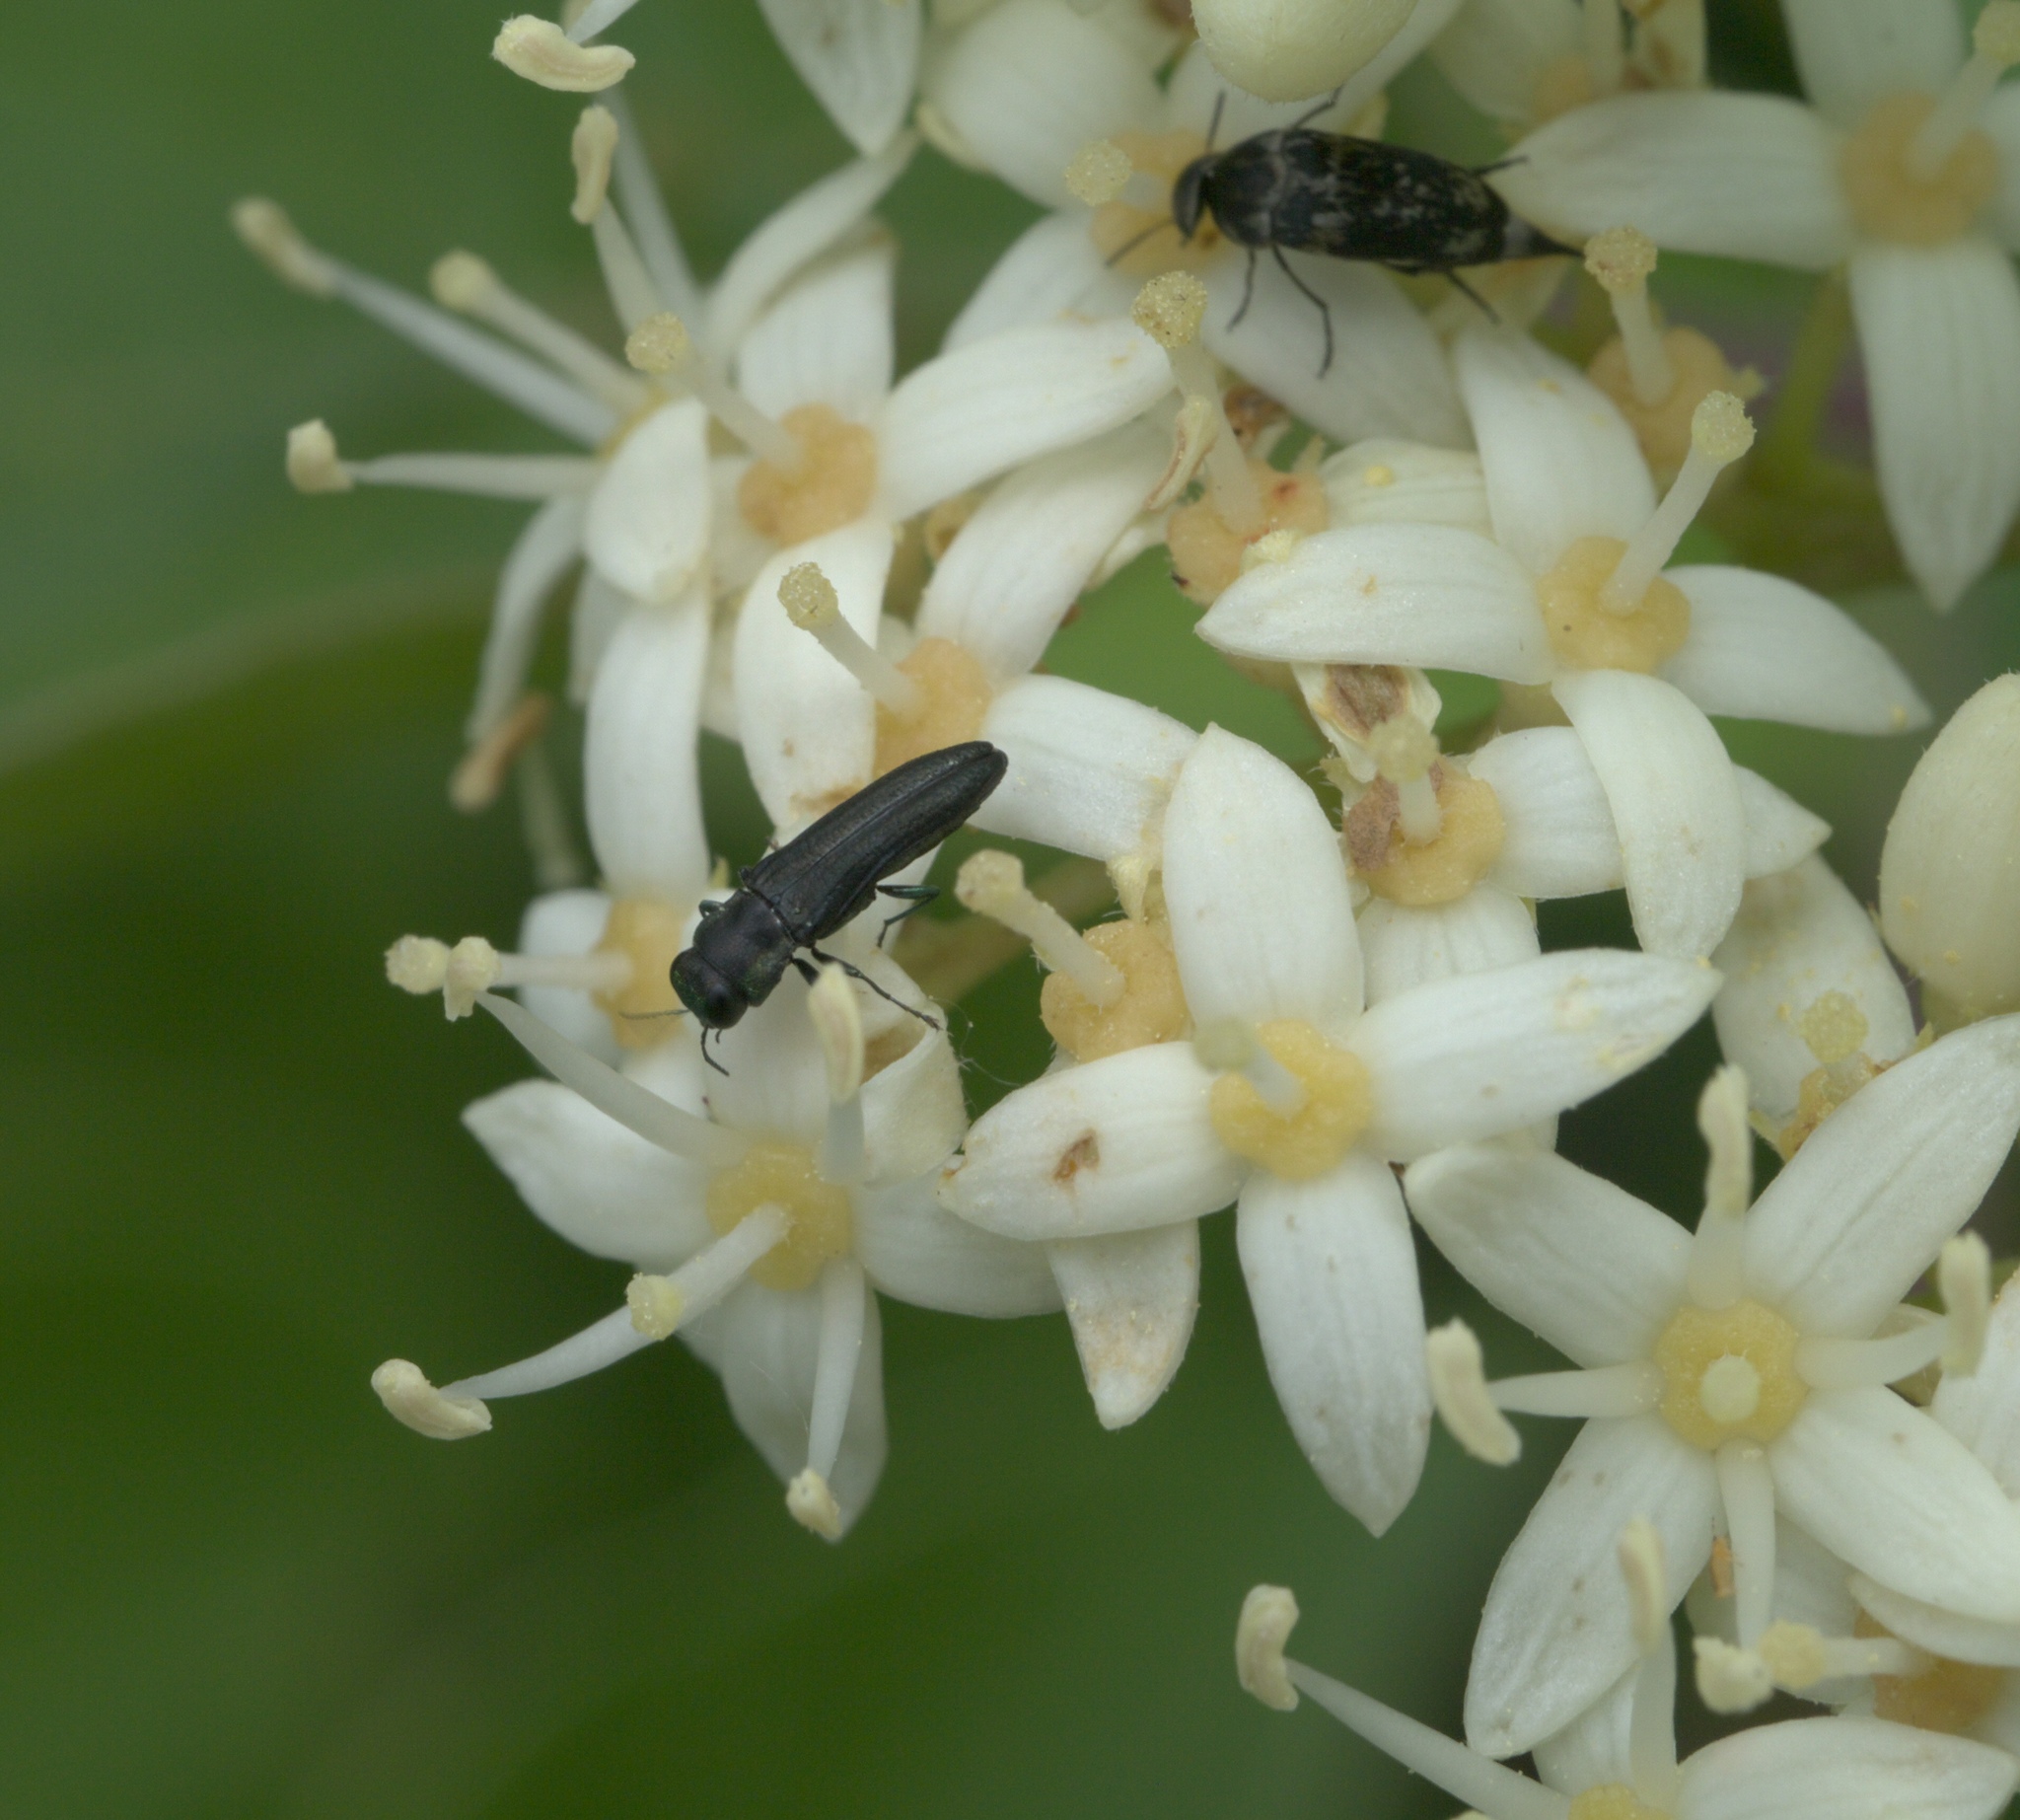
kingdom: Plantae
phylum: Tracheophyta
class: Magnoliopsida
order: Cornales
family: Cornaceae
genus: Cornus
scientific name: Cornus drummondii
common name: Rough-leaf dogwood
